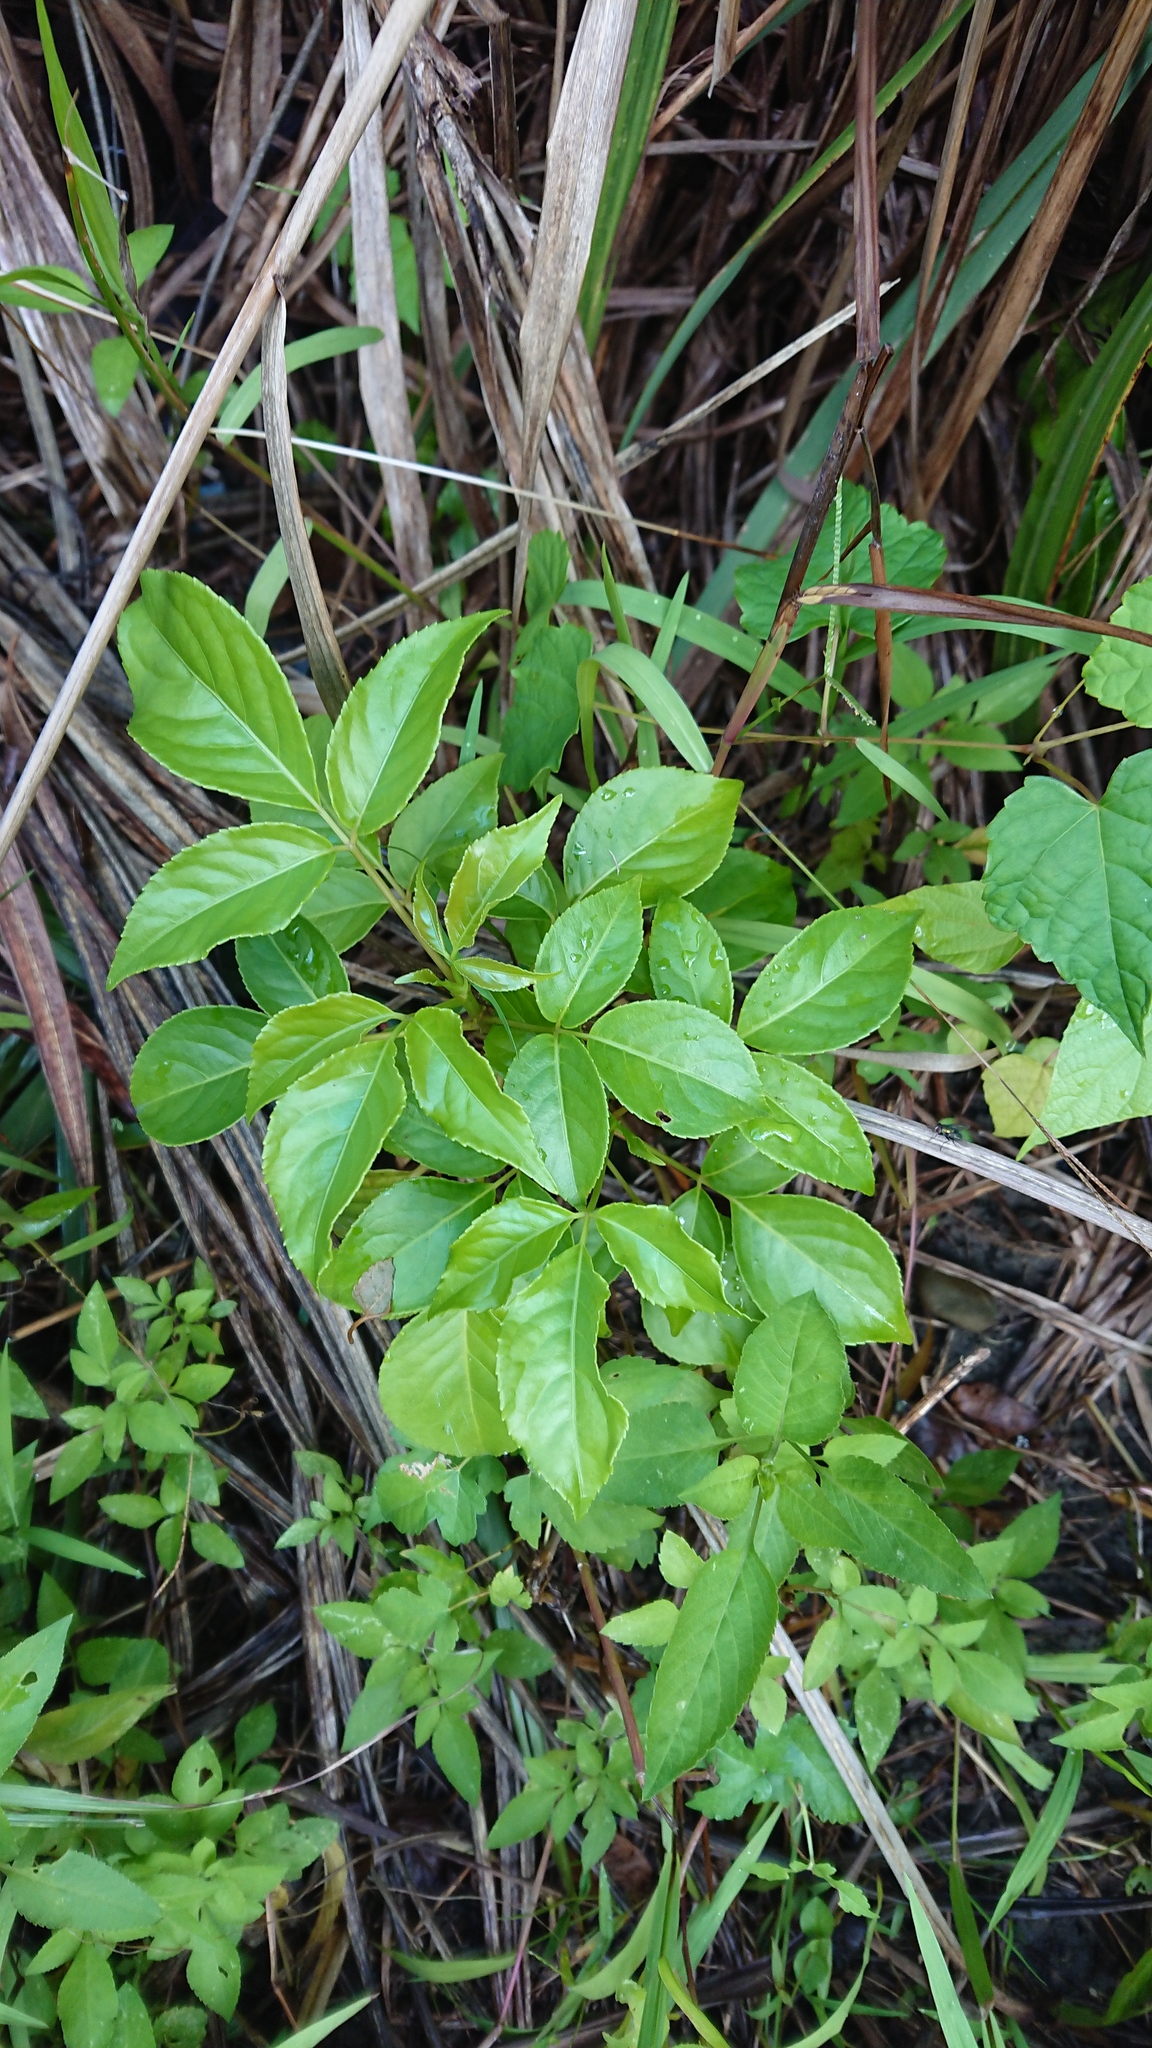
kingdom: Plantae
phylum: Tracheophyta
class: Magnoliopsida
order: Malpighiales
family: Phyllanthaceae
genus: Bischofia
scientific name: Bischofia javanica
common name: Javanese bishopwood
